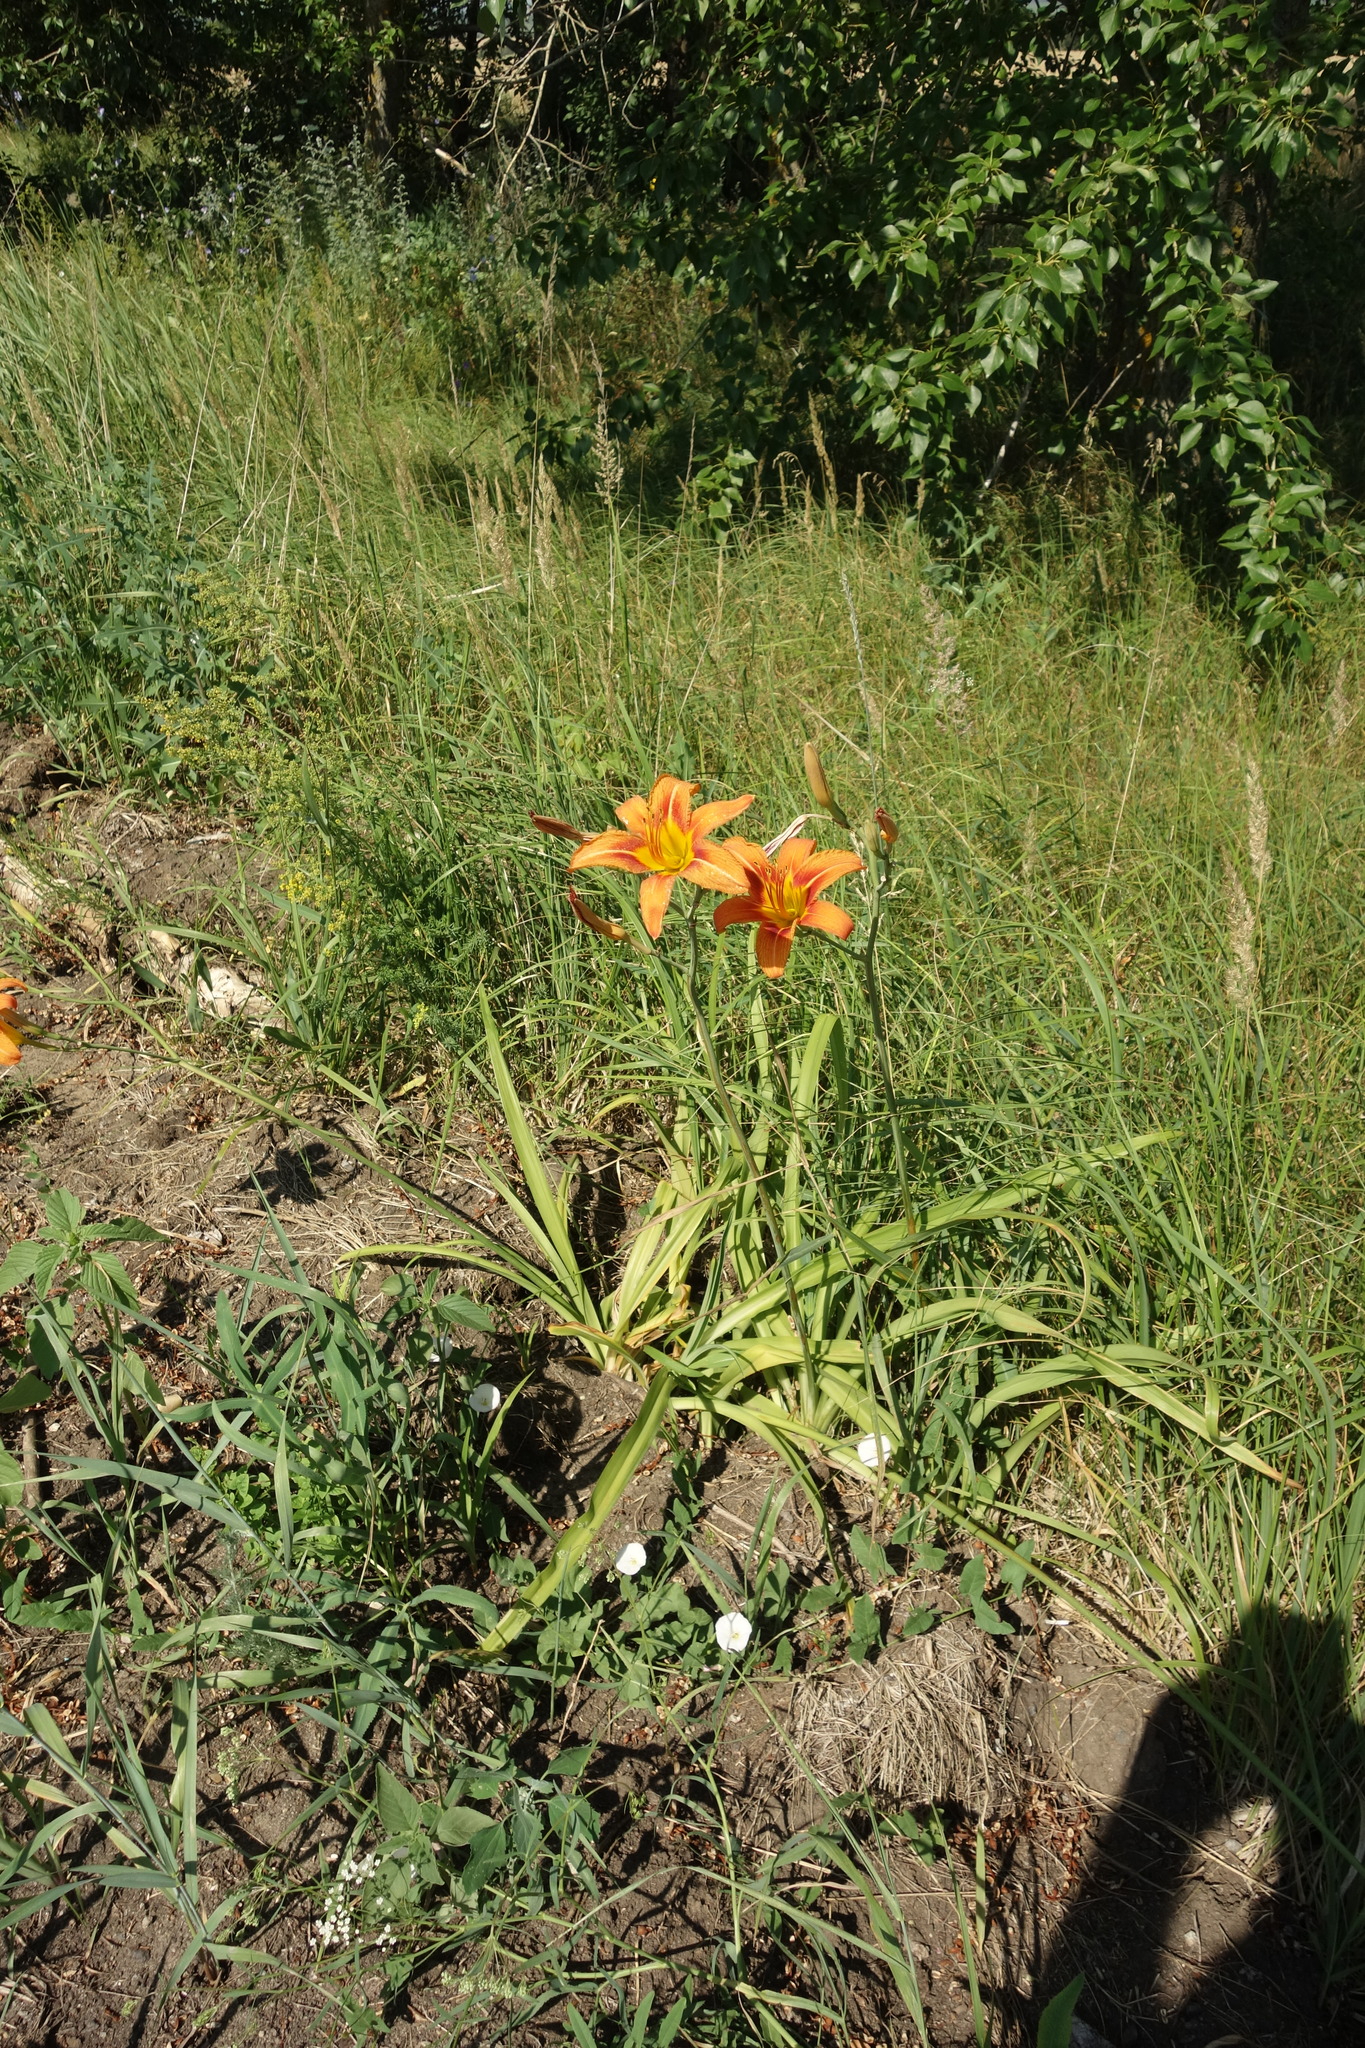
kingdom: Plantae
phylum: Tracheophyta
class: Liliopsida
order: Asparagales
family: Asphodelaceae
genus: Hemerocallis
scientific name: Hemerocallis fulva
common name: Orange day-lily
